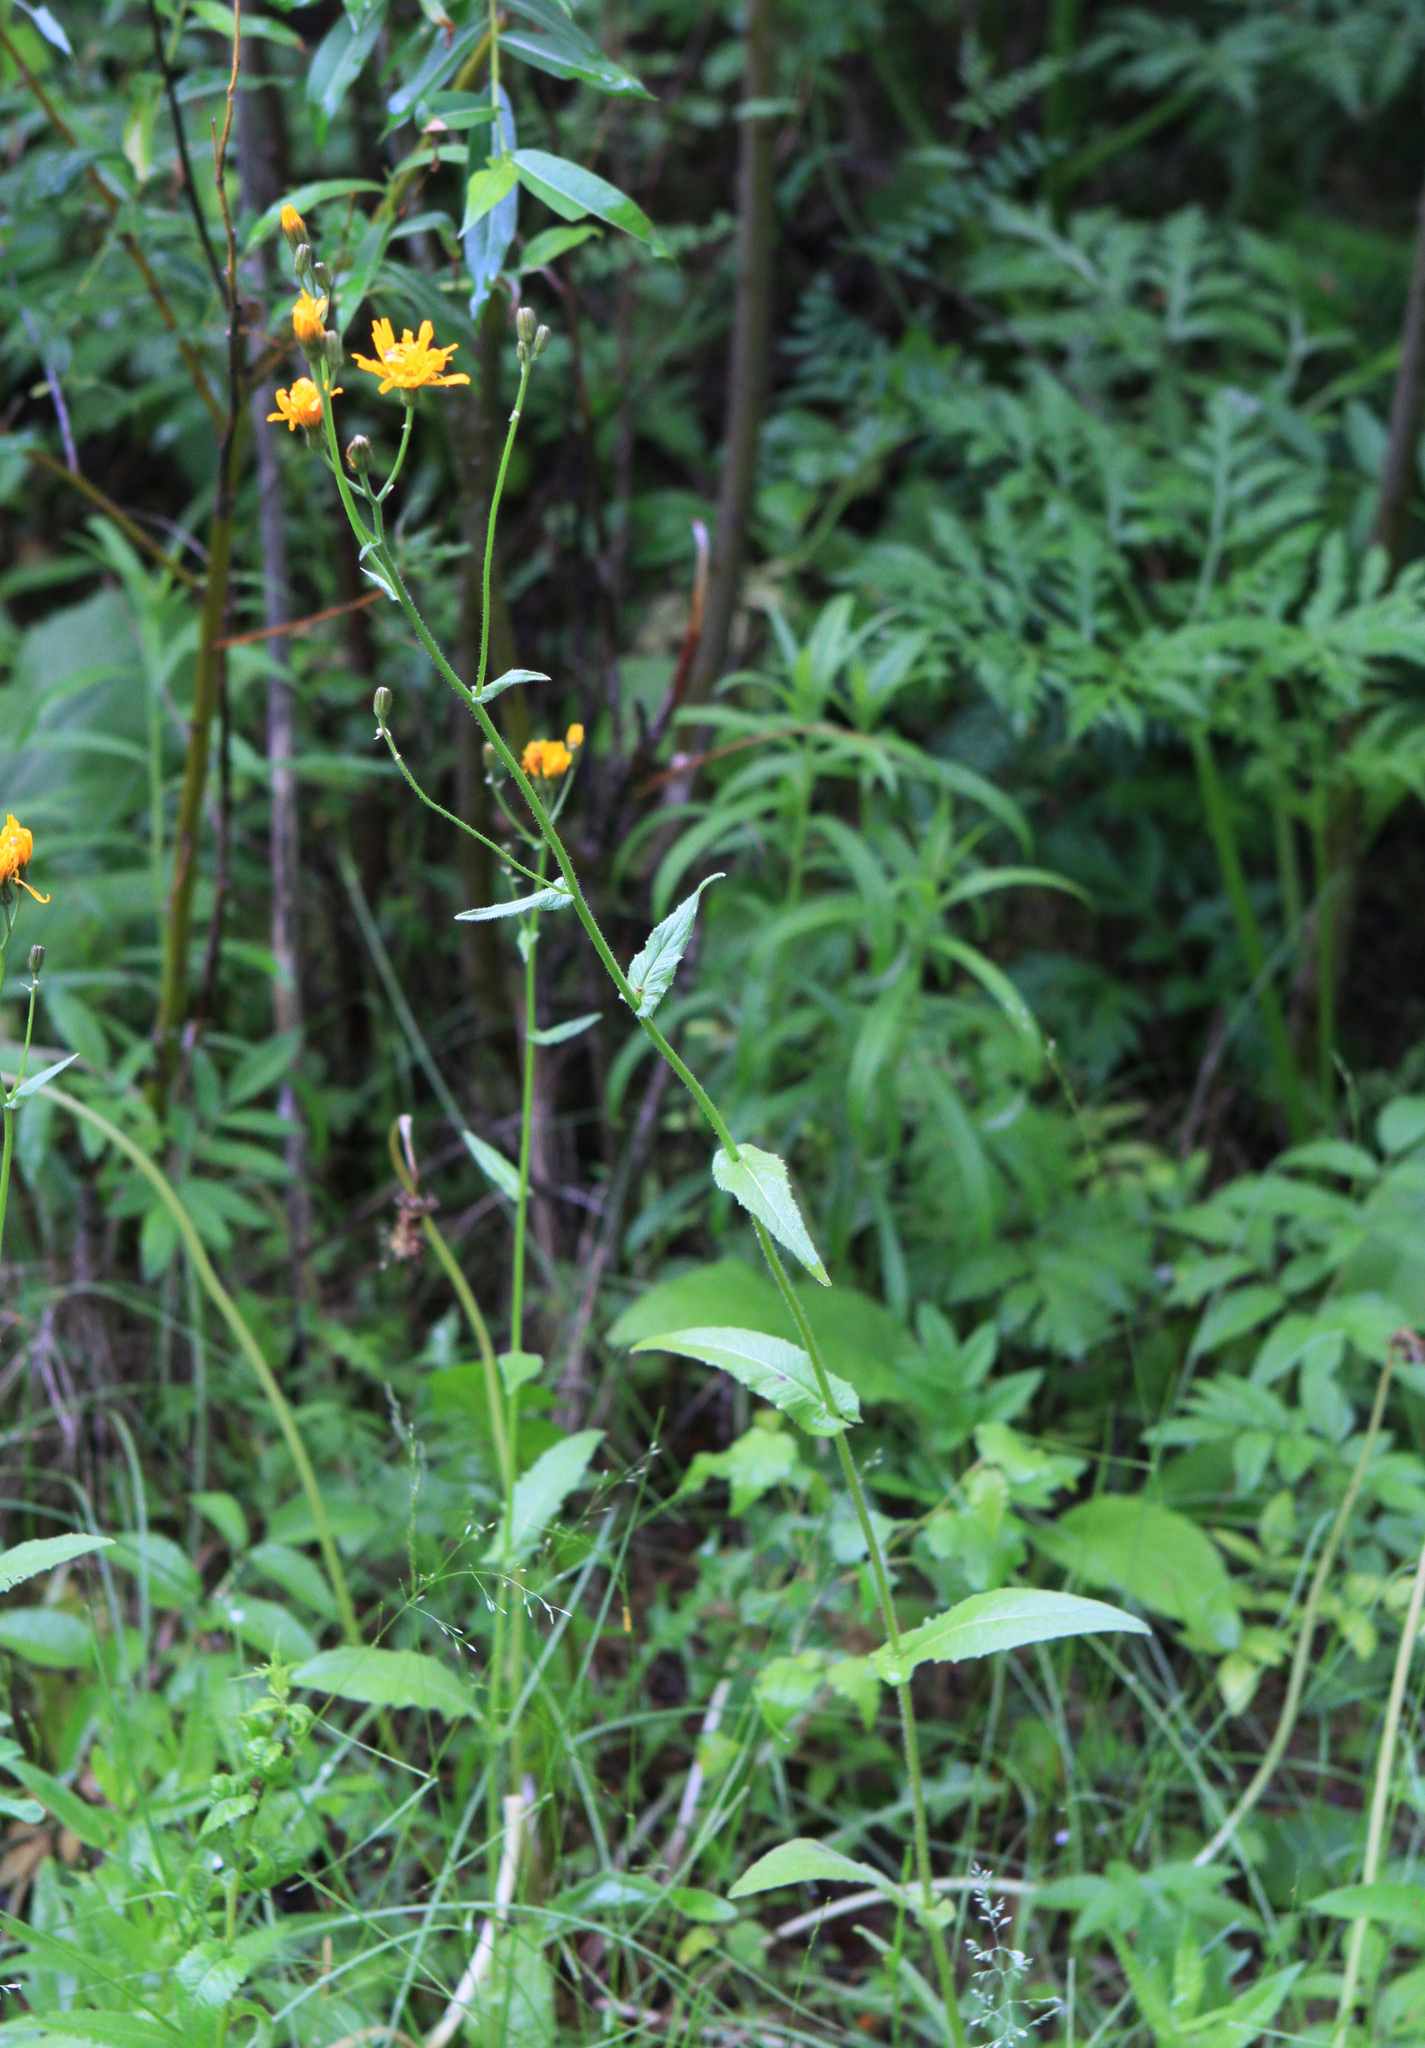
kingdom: Plantae
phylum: Tracheophyta
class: Magnoliopsida
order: Asterales
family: Asteraceae
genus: Crepis
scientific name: Crepis lyrata
